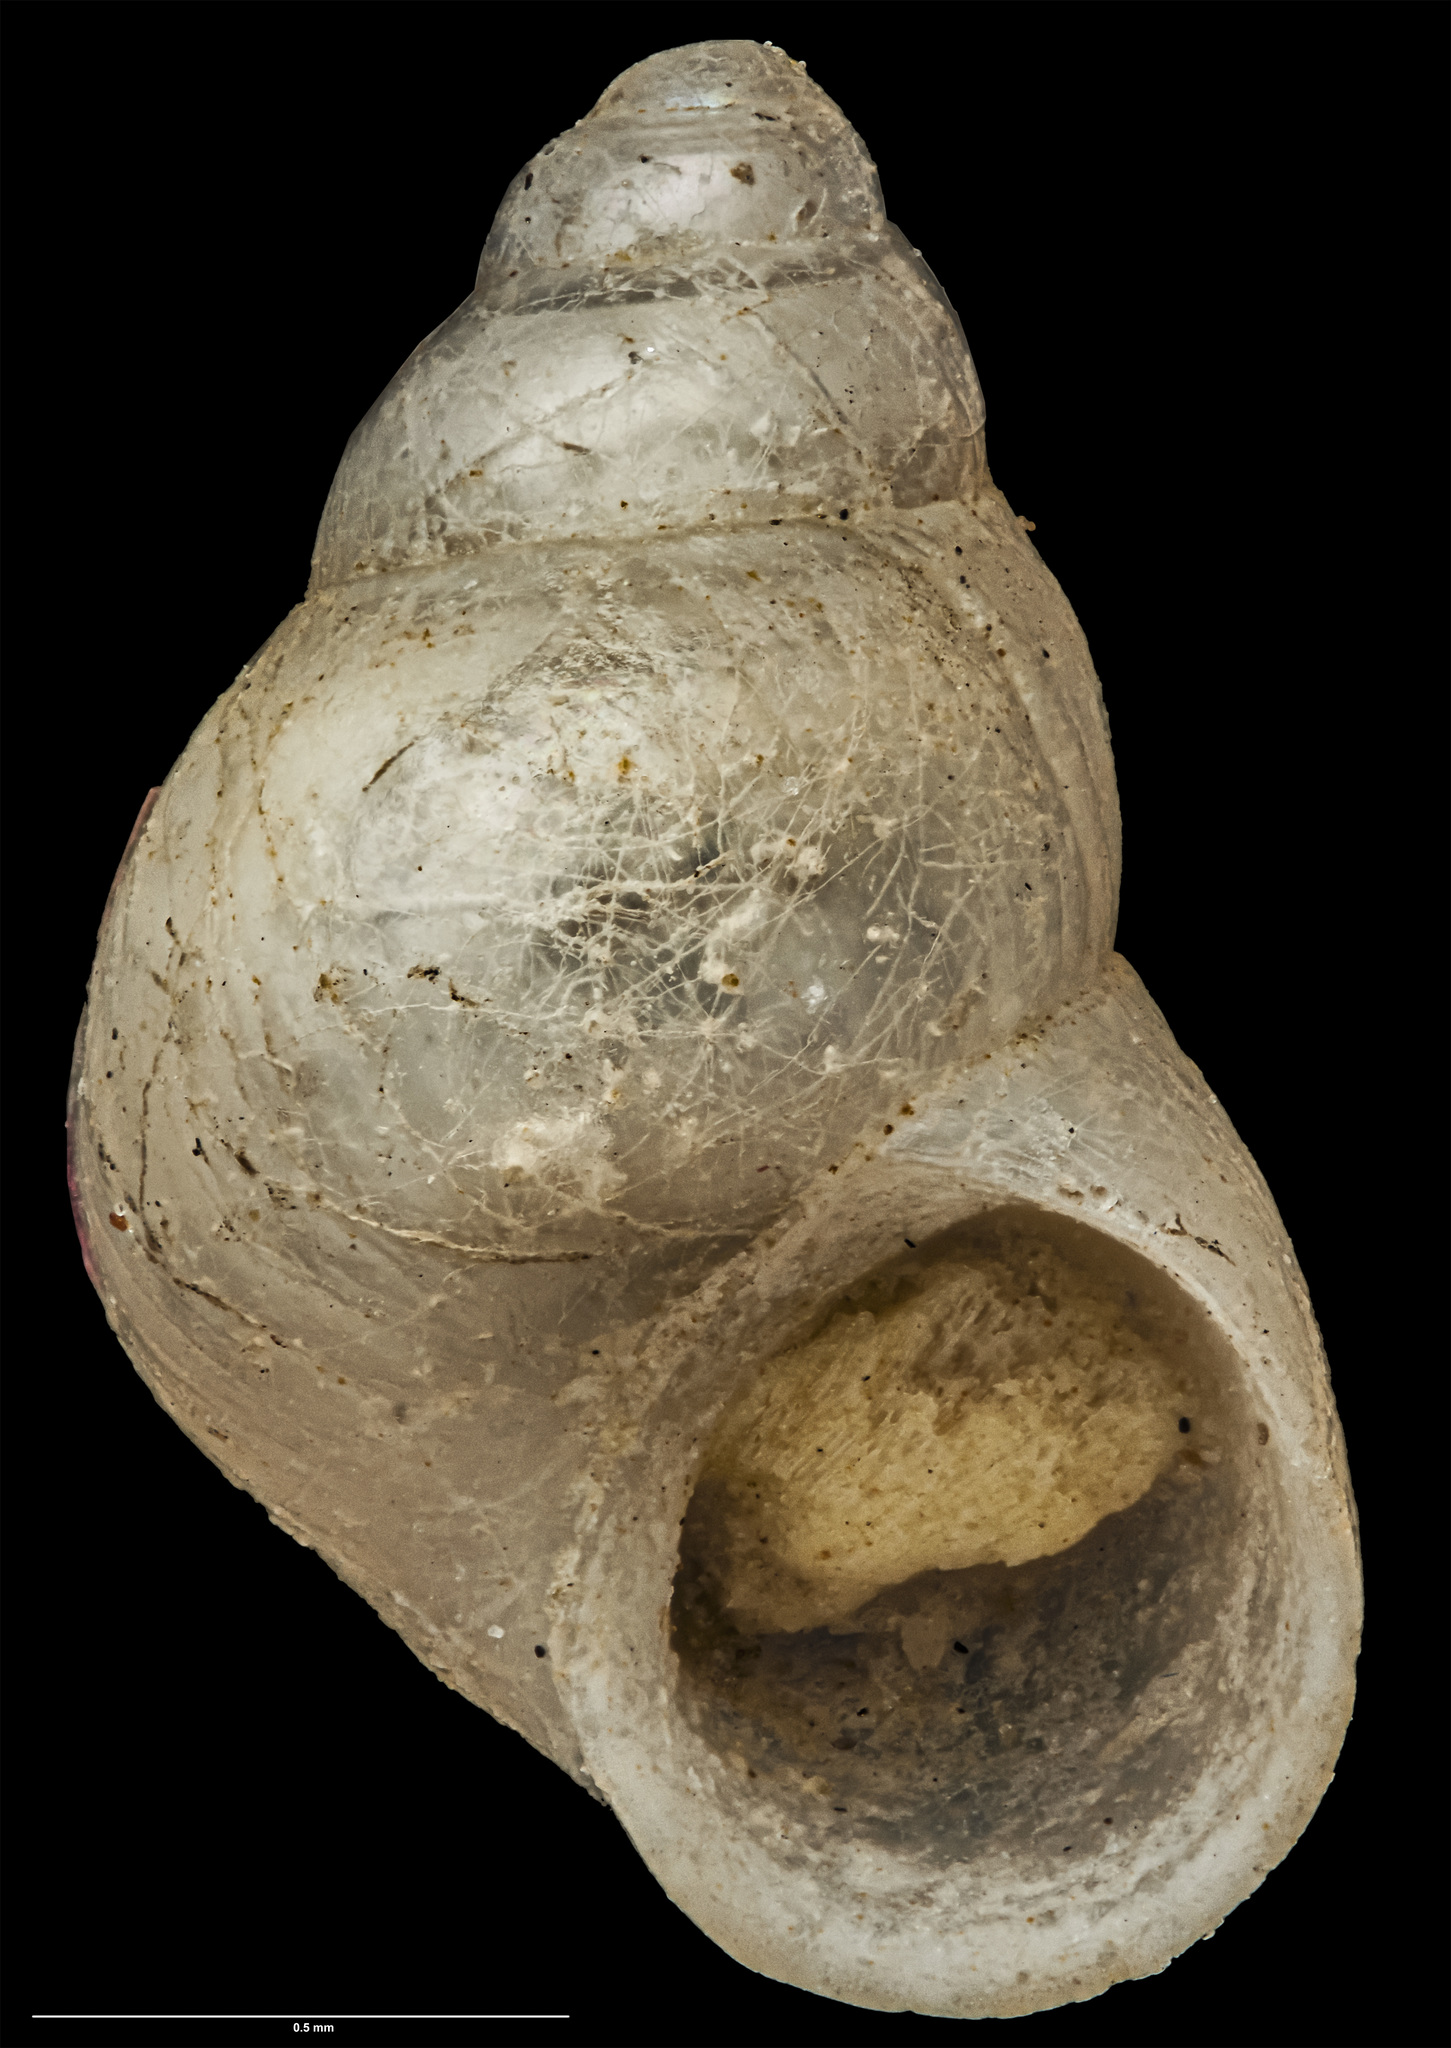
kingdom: Animalia
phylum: Mollusca
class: Gastropoda
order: Littorinimorpha
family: Eatoniellidae
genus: Eatoniella
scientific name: Eatoniella verecunda
